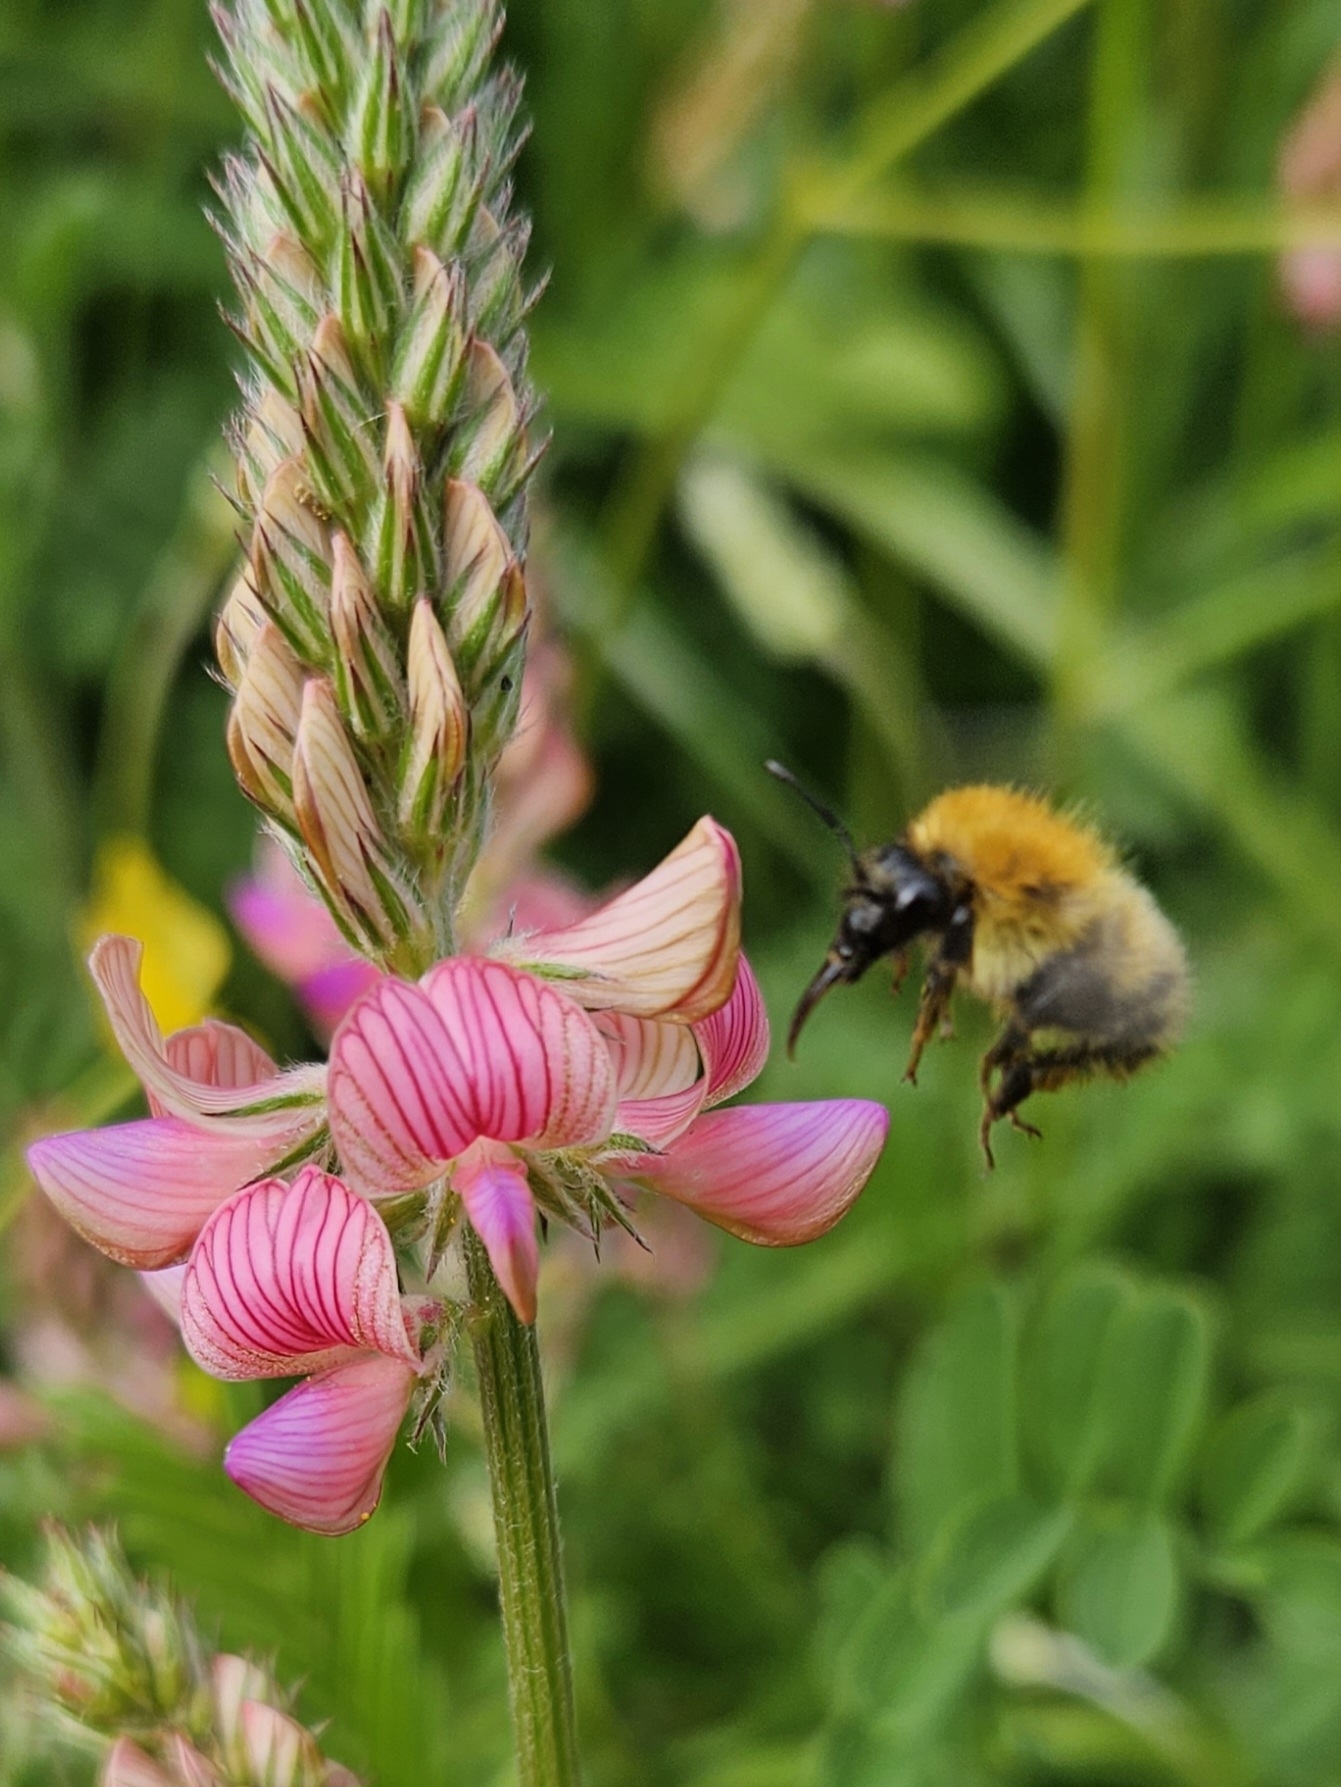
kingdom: Plantae
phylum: Tracheophyta
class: Magnoliopsida
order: Fabales
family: Fabaceae
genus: Onobrychis
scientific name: Onobrychis viciifolia
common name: Sainfoin
